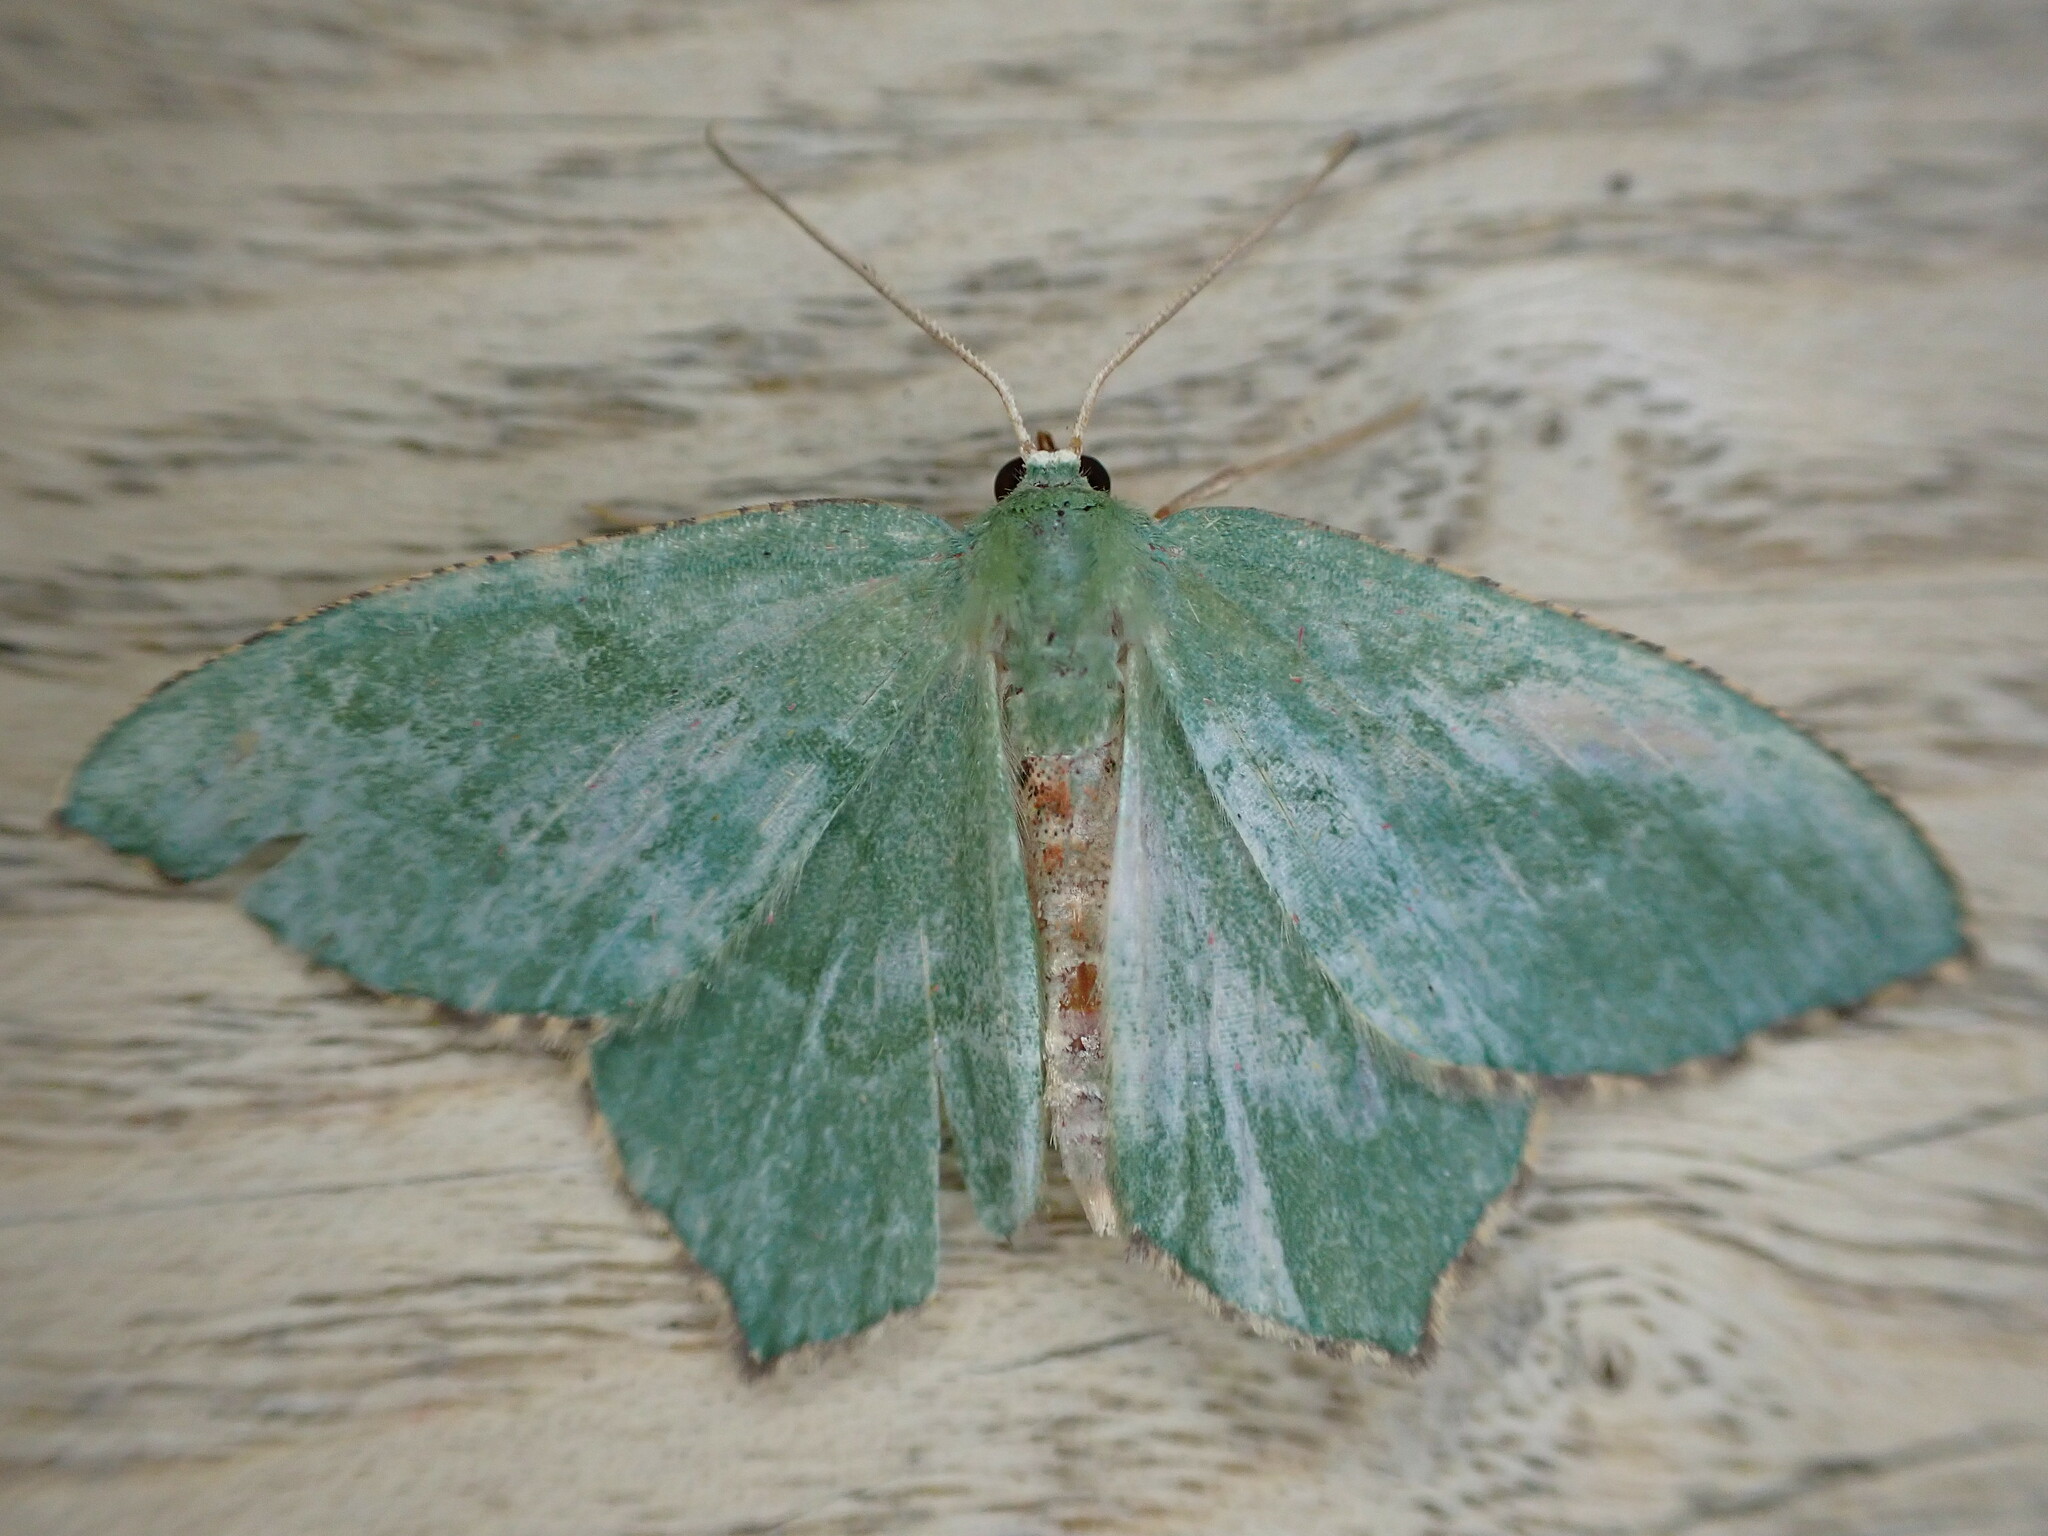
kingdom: Animalia
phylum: Arthropoda
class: Insecta
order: Lepidoptera
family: Geometridae
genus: Hemithea
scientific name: Hemithea aestivaria
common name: Common emerald
